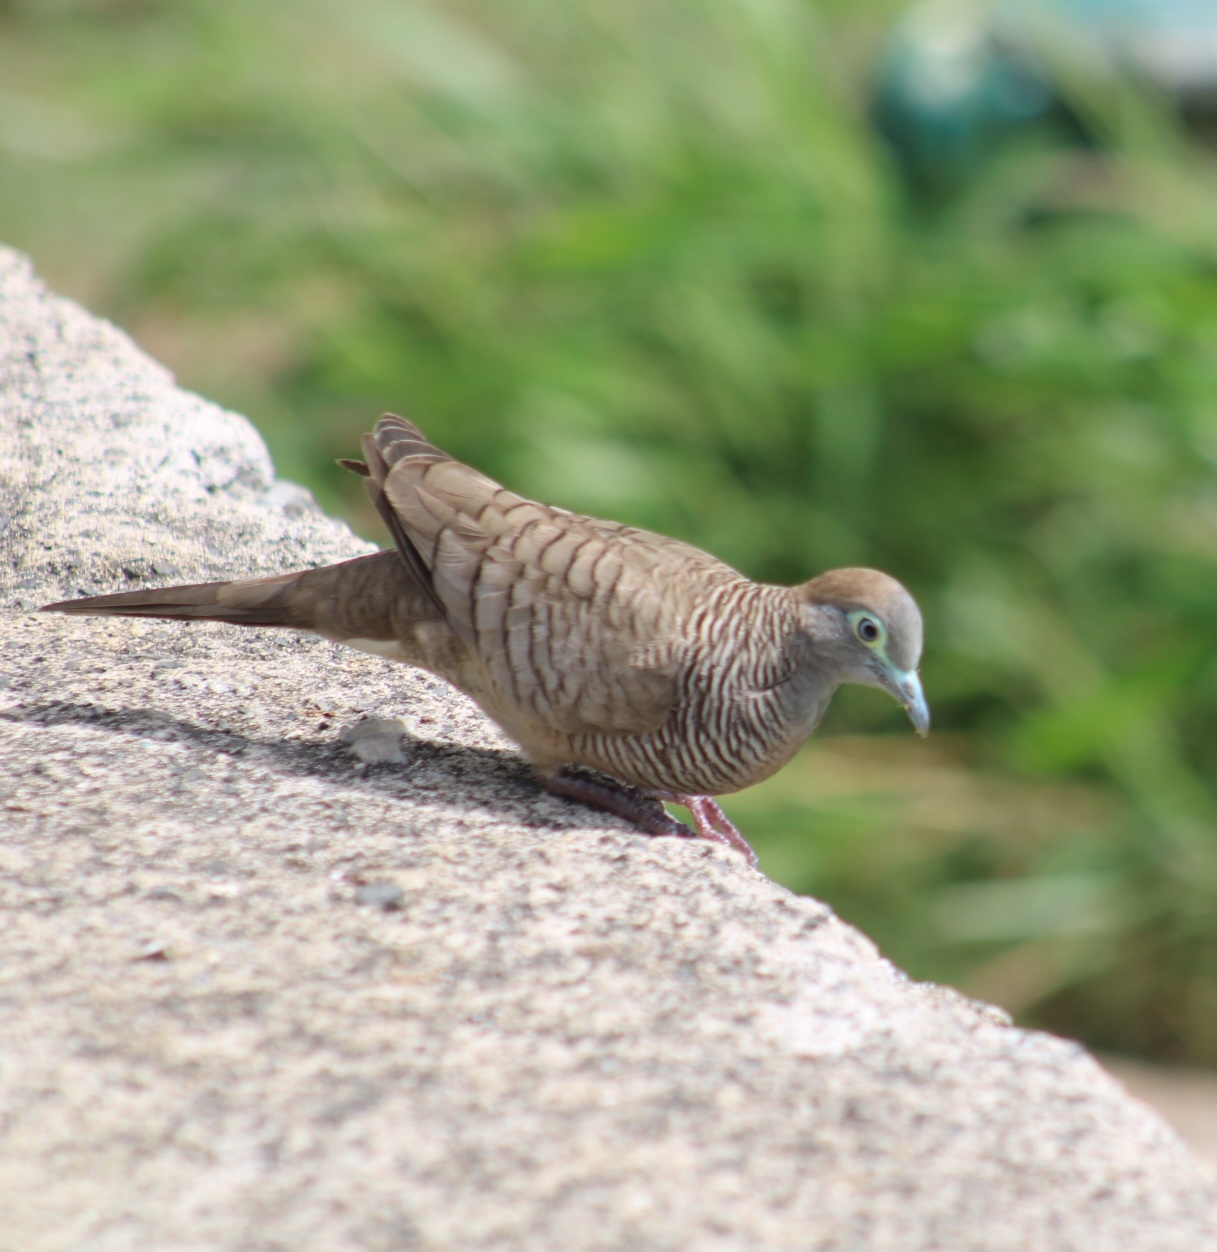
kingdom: Animalia
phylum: Chordata
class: Aves
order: Columbiformes
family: Columbidae
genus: Geopelia
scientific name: Geopelia striata
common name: Zebra dove
